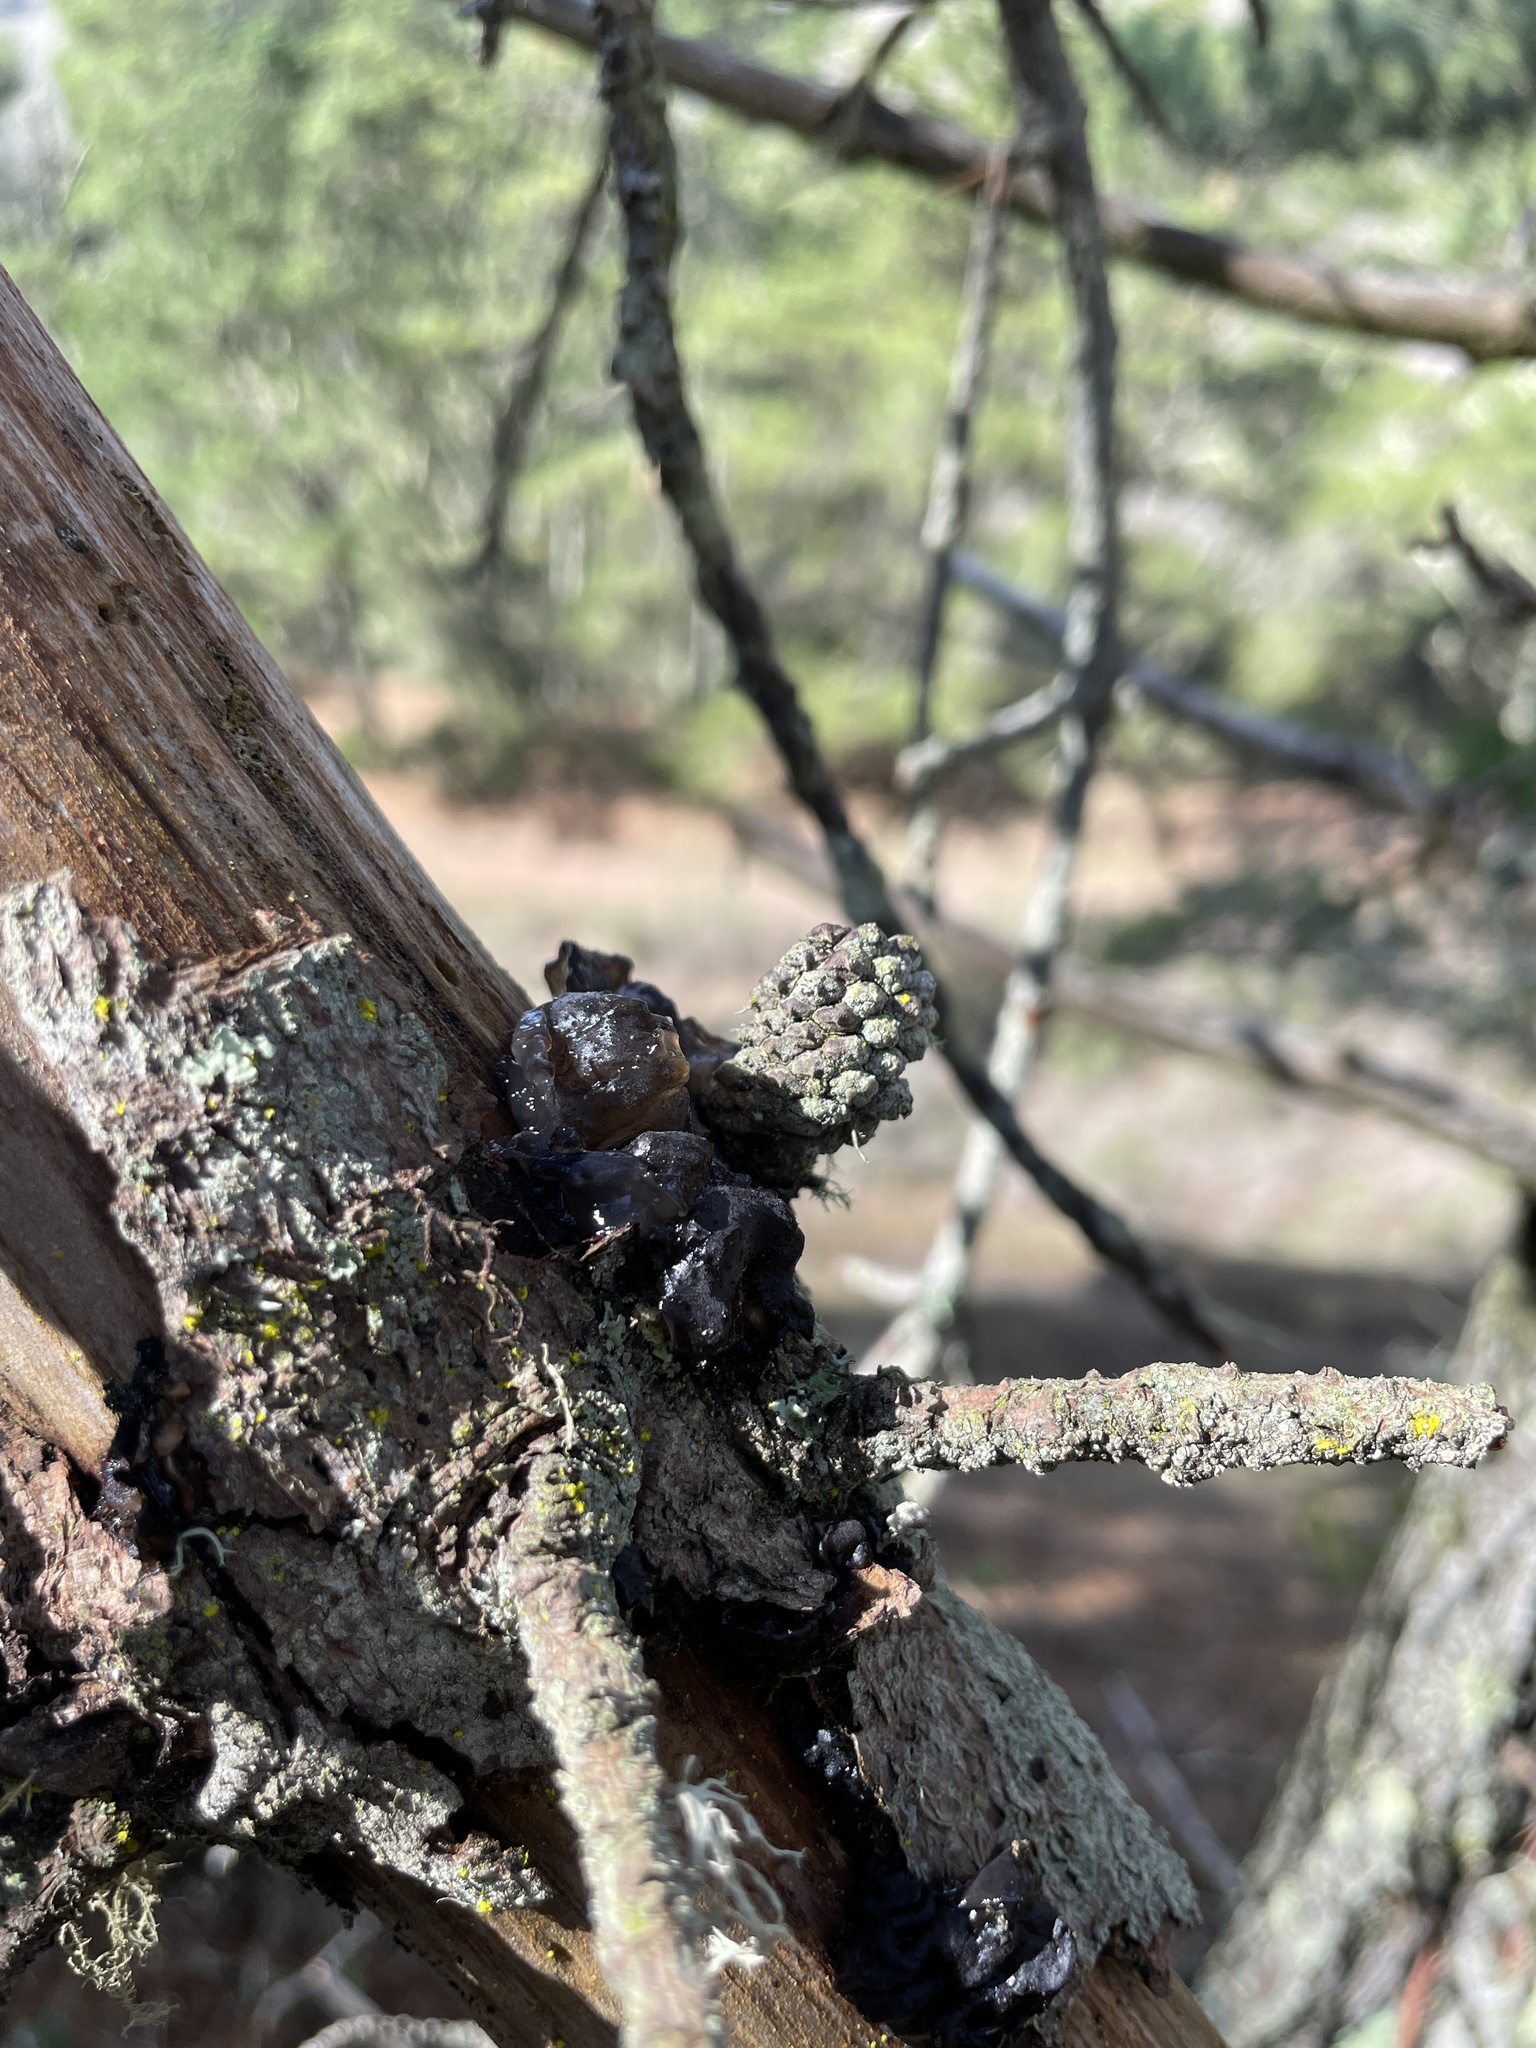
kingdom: Fungi
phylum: Basidiomycota
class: Agaricomycetes
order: Auriculariales
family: Auriculariaceae
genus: Exidia
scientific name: Exidia glandulosa
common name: Witches' butter
